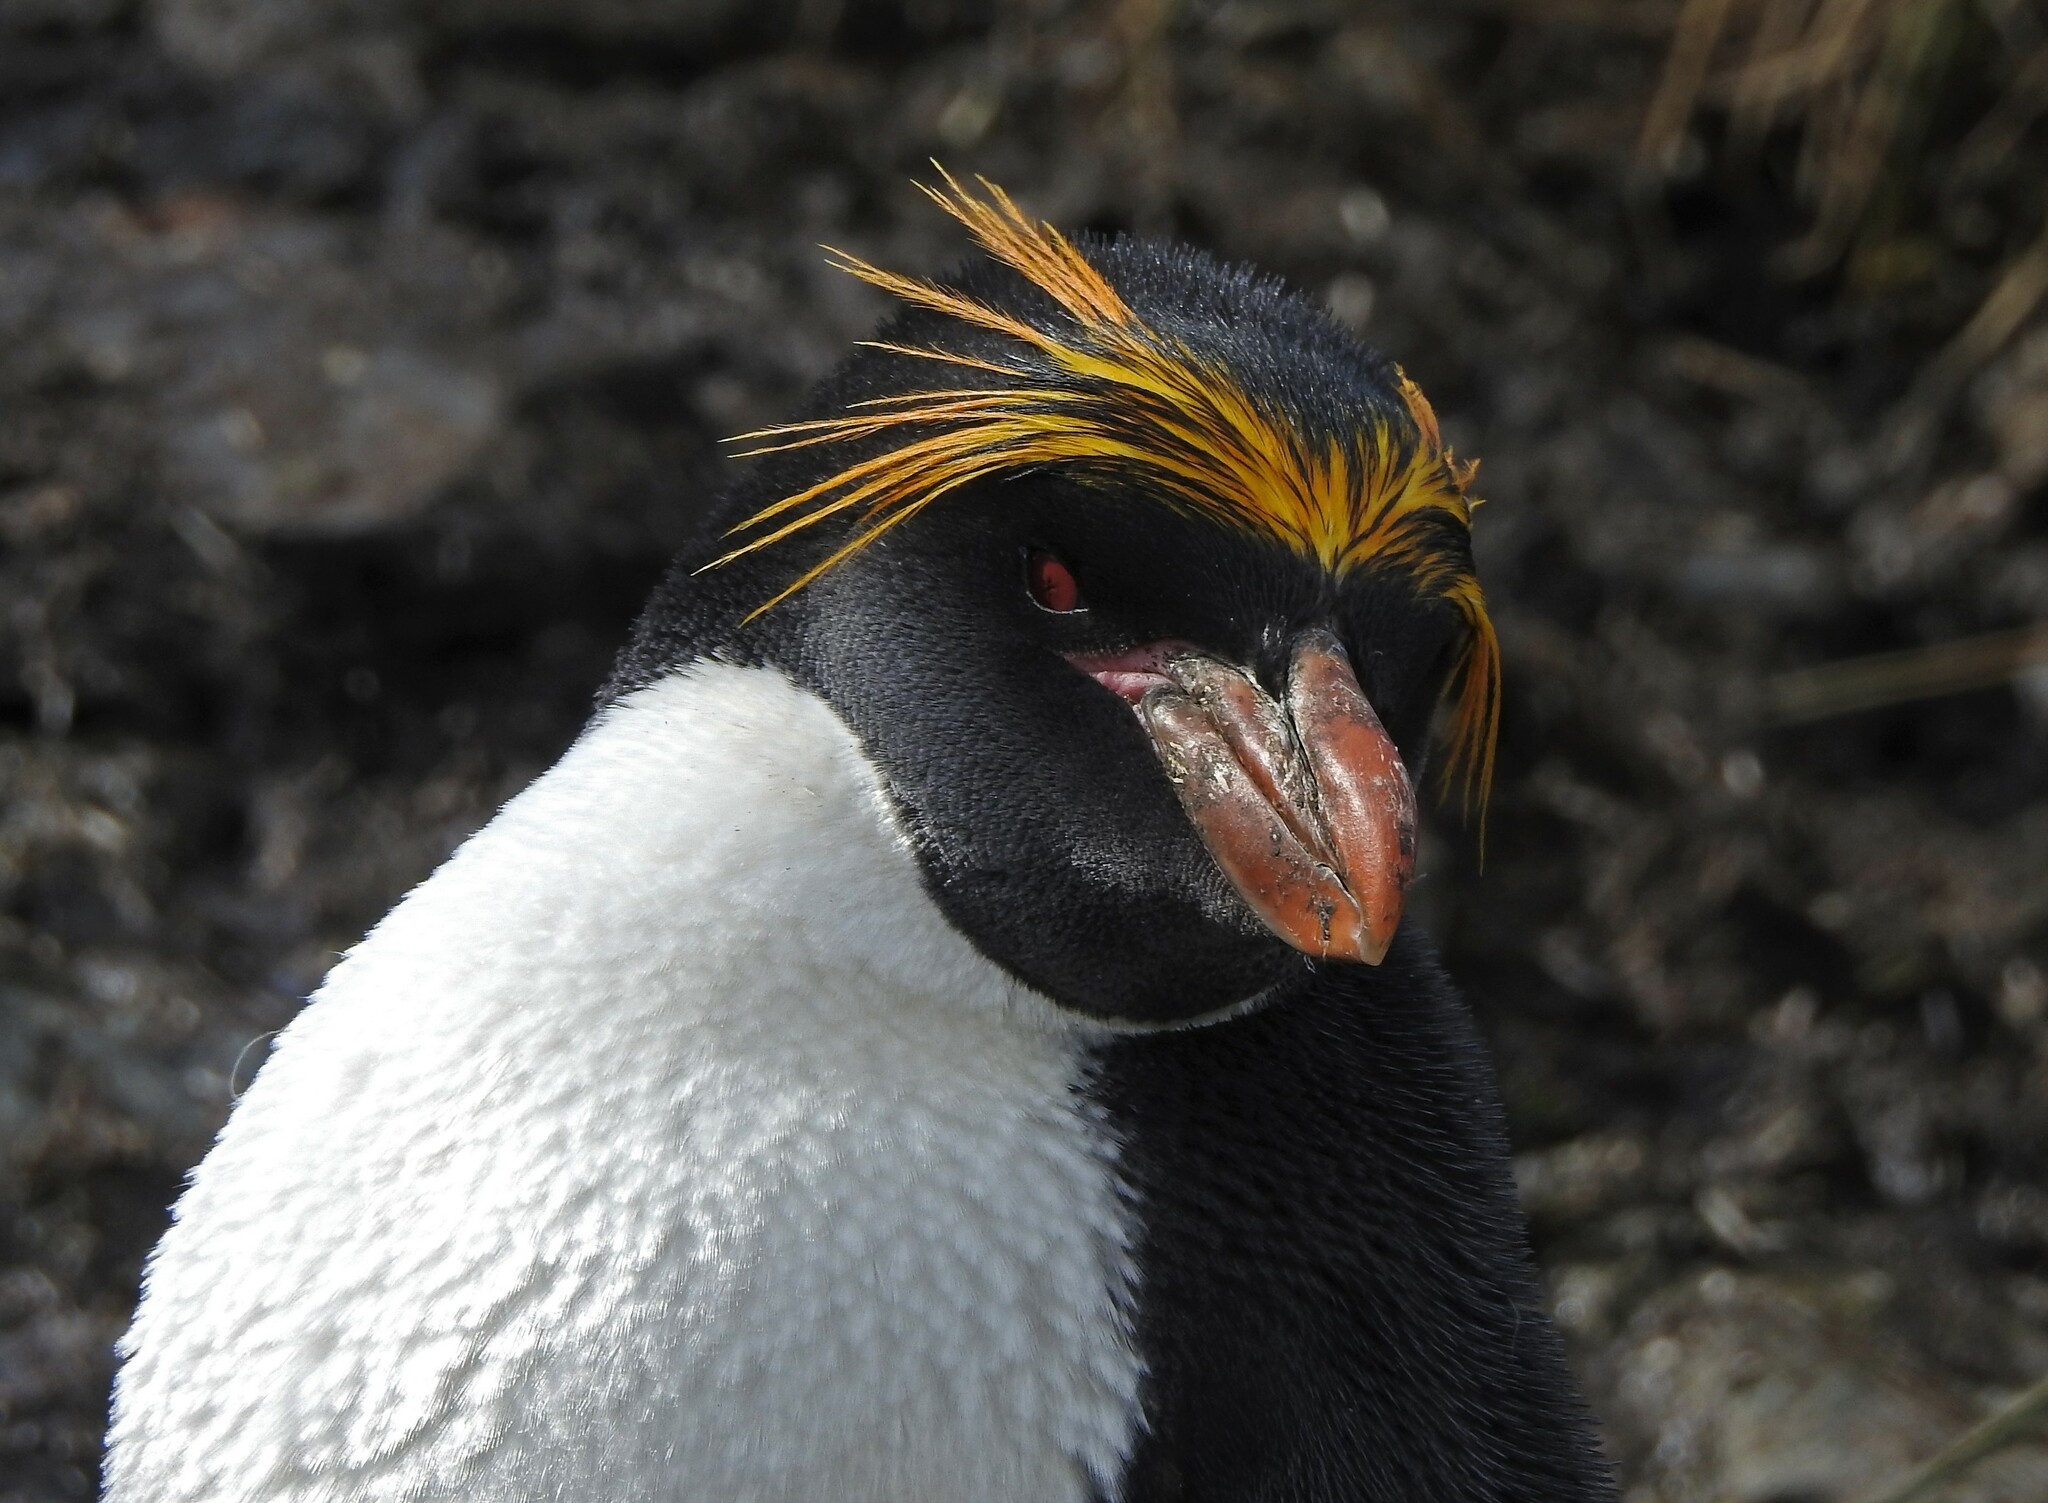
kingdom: Animalia
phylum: Chordata
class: Aves
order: Sphenisciformes
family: Spheniscidae
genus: Eudyptes
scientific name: Eudyptes chrysolophus
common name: Macaroni penguin
